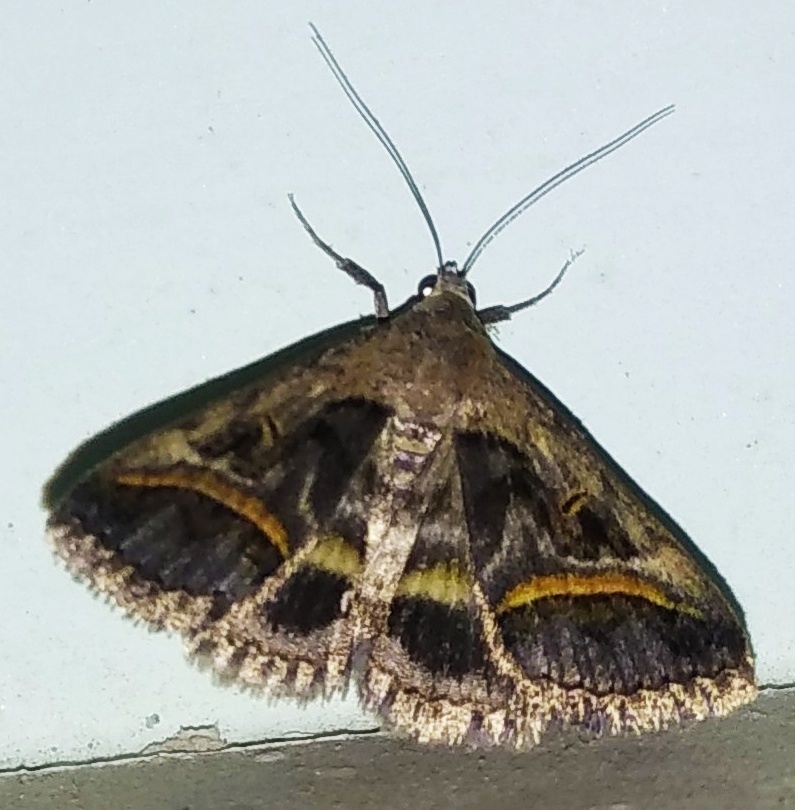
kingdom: Animalia
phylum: Arthropoda
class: Insecta
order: Lepidoptera
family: Erebidae
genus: Acantholipes
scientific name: Acantholipes circumdata
